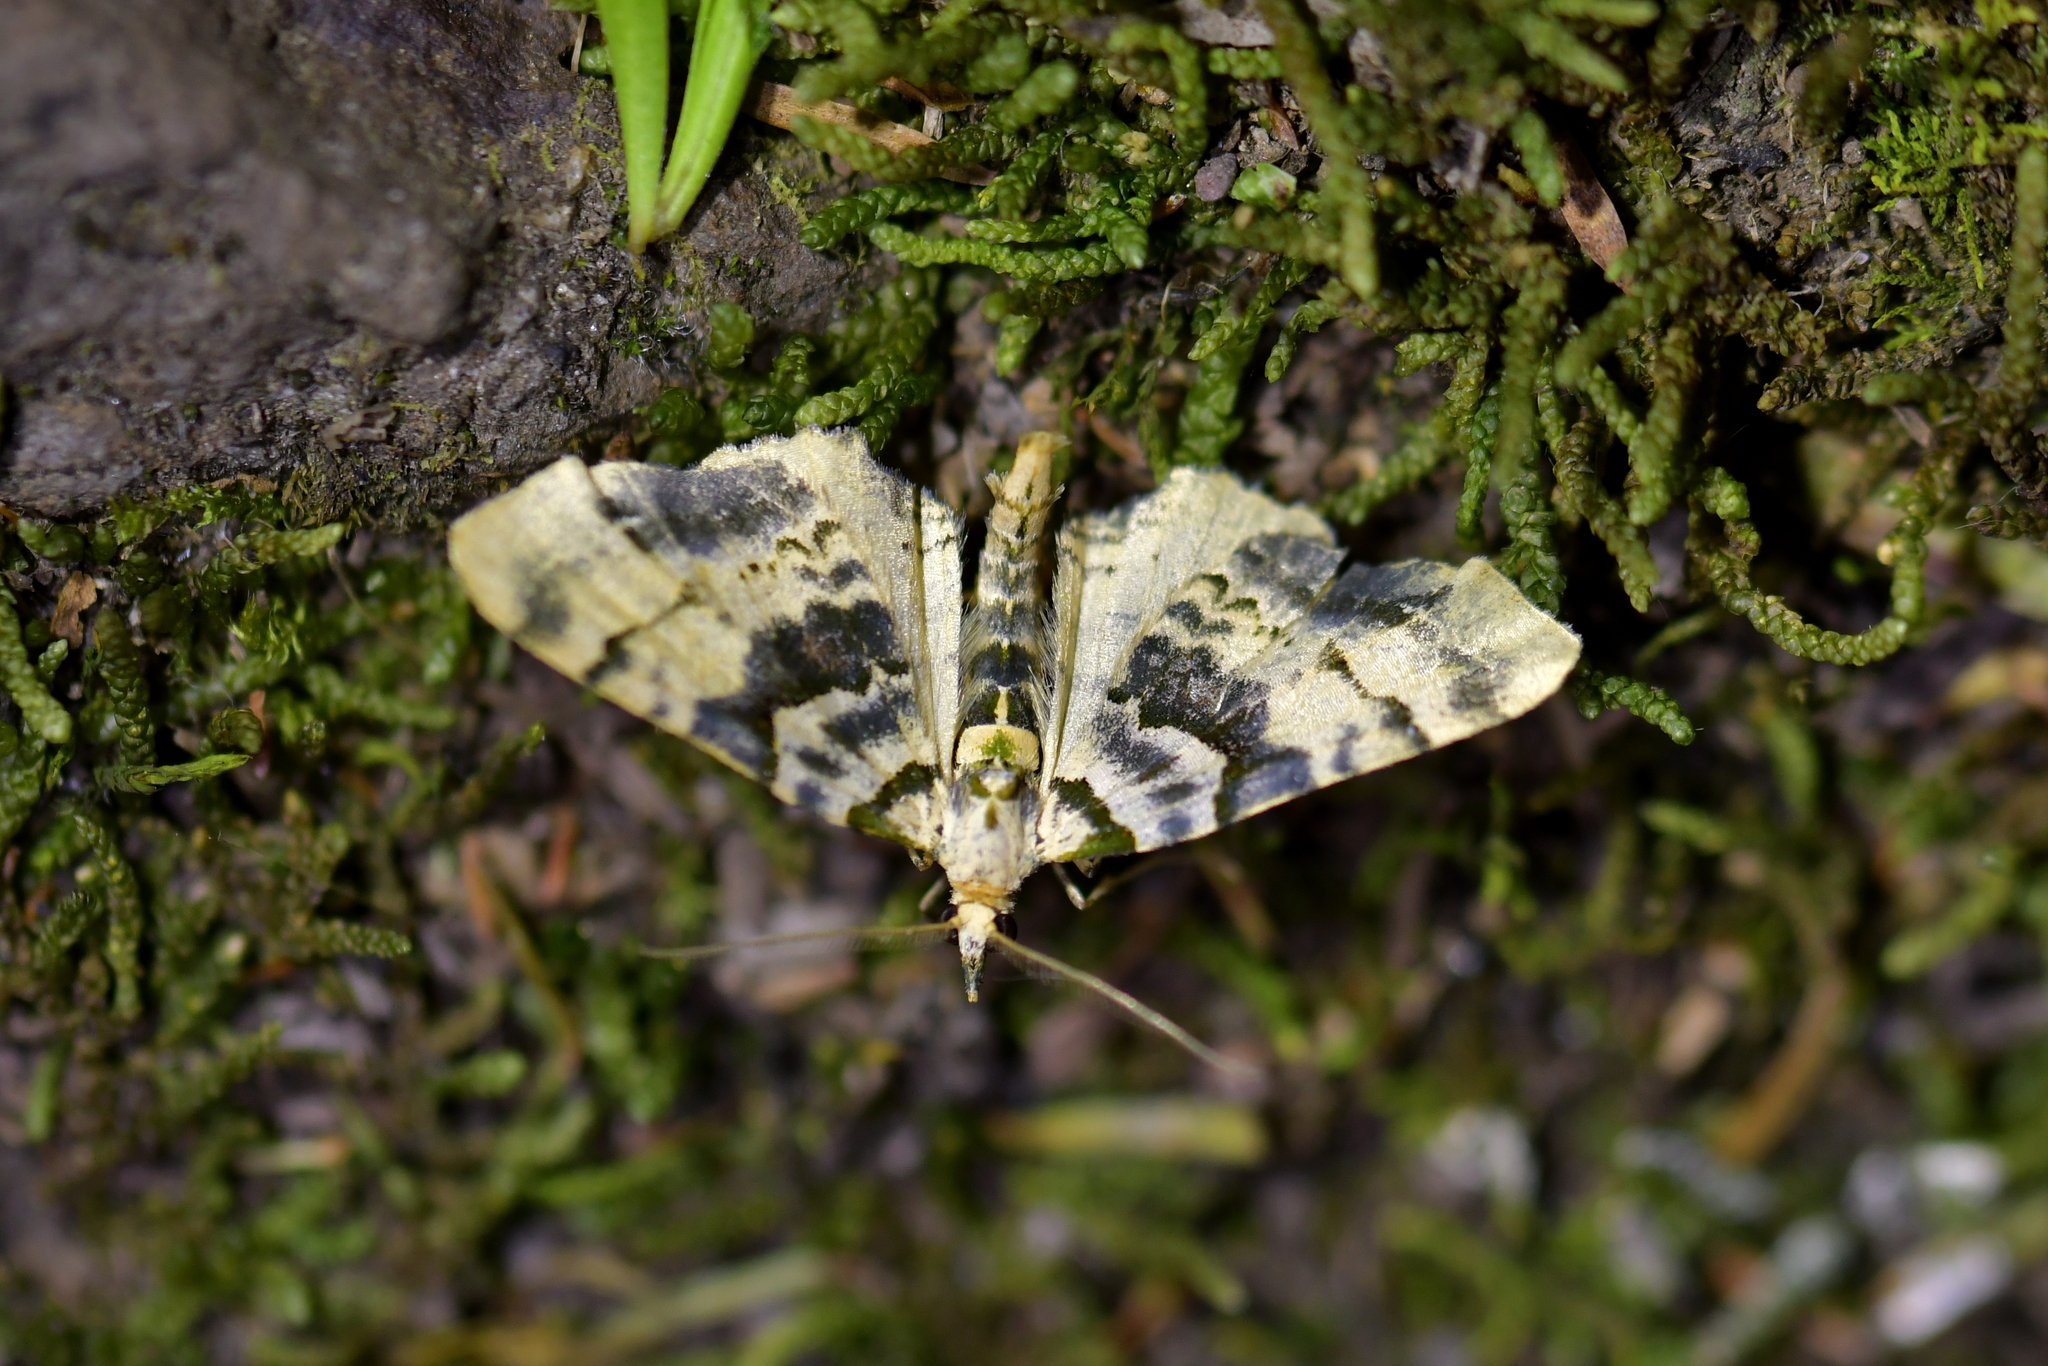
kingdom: Animalia
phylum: Arthropoda
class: Insecta
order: Lepidoptera
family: Geometridae
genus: Elvia
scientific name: Elvia glaucata
